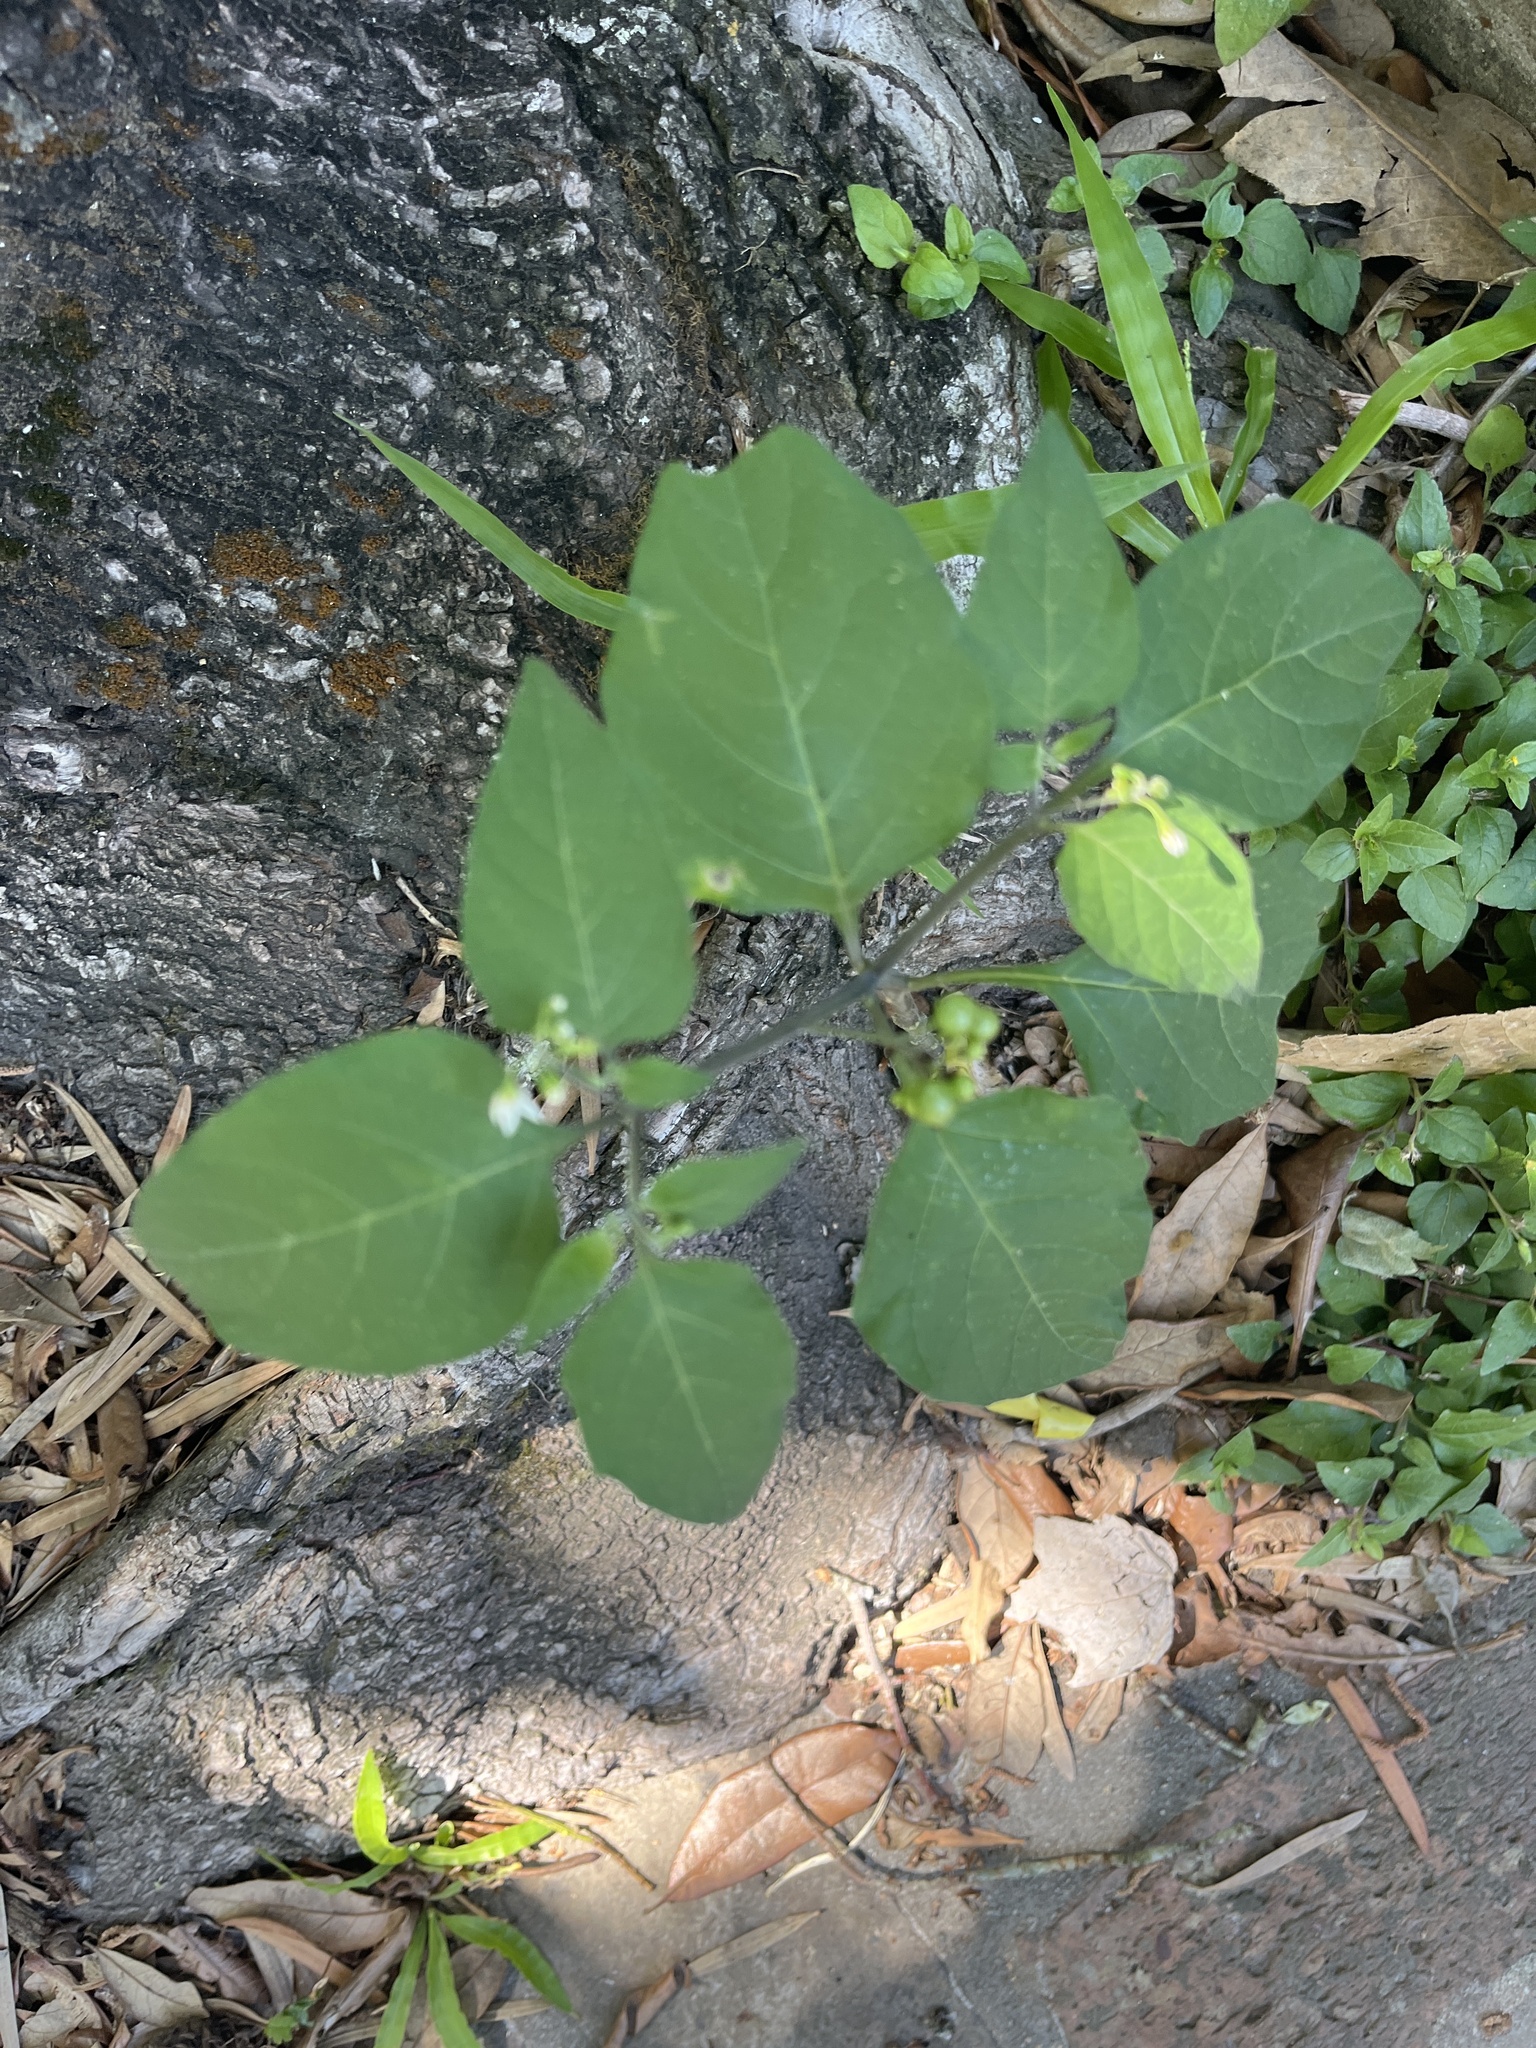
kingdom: Plantae
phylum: Tracheophyta
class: Magnoliopsida
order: Solanales
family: Solanaceae
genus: Solanum
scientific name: Solanum americanum
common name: American black nightshade
